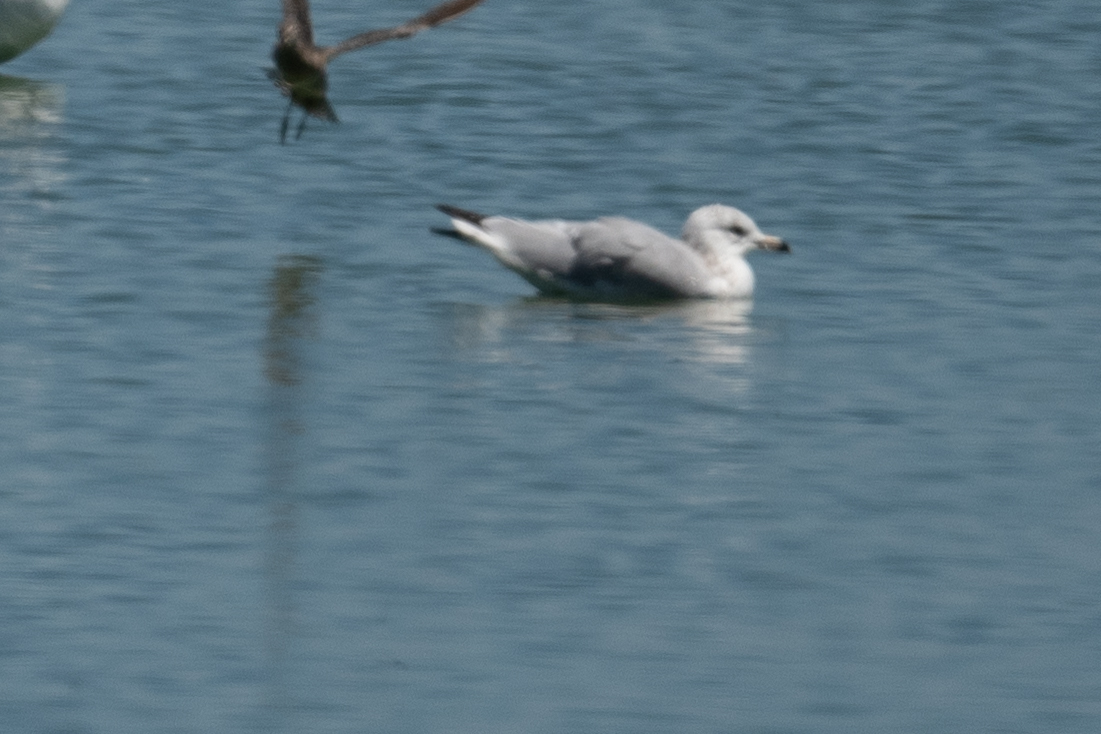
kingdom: Animalia
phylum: Chordata
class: Aves
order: Charadriiformes
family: Laridae
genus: Larus
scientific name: Larus delawarensis
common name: Ring-billed gull
